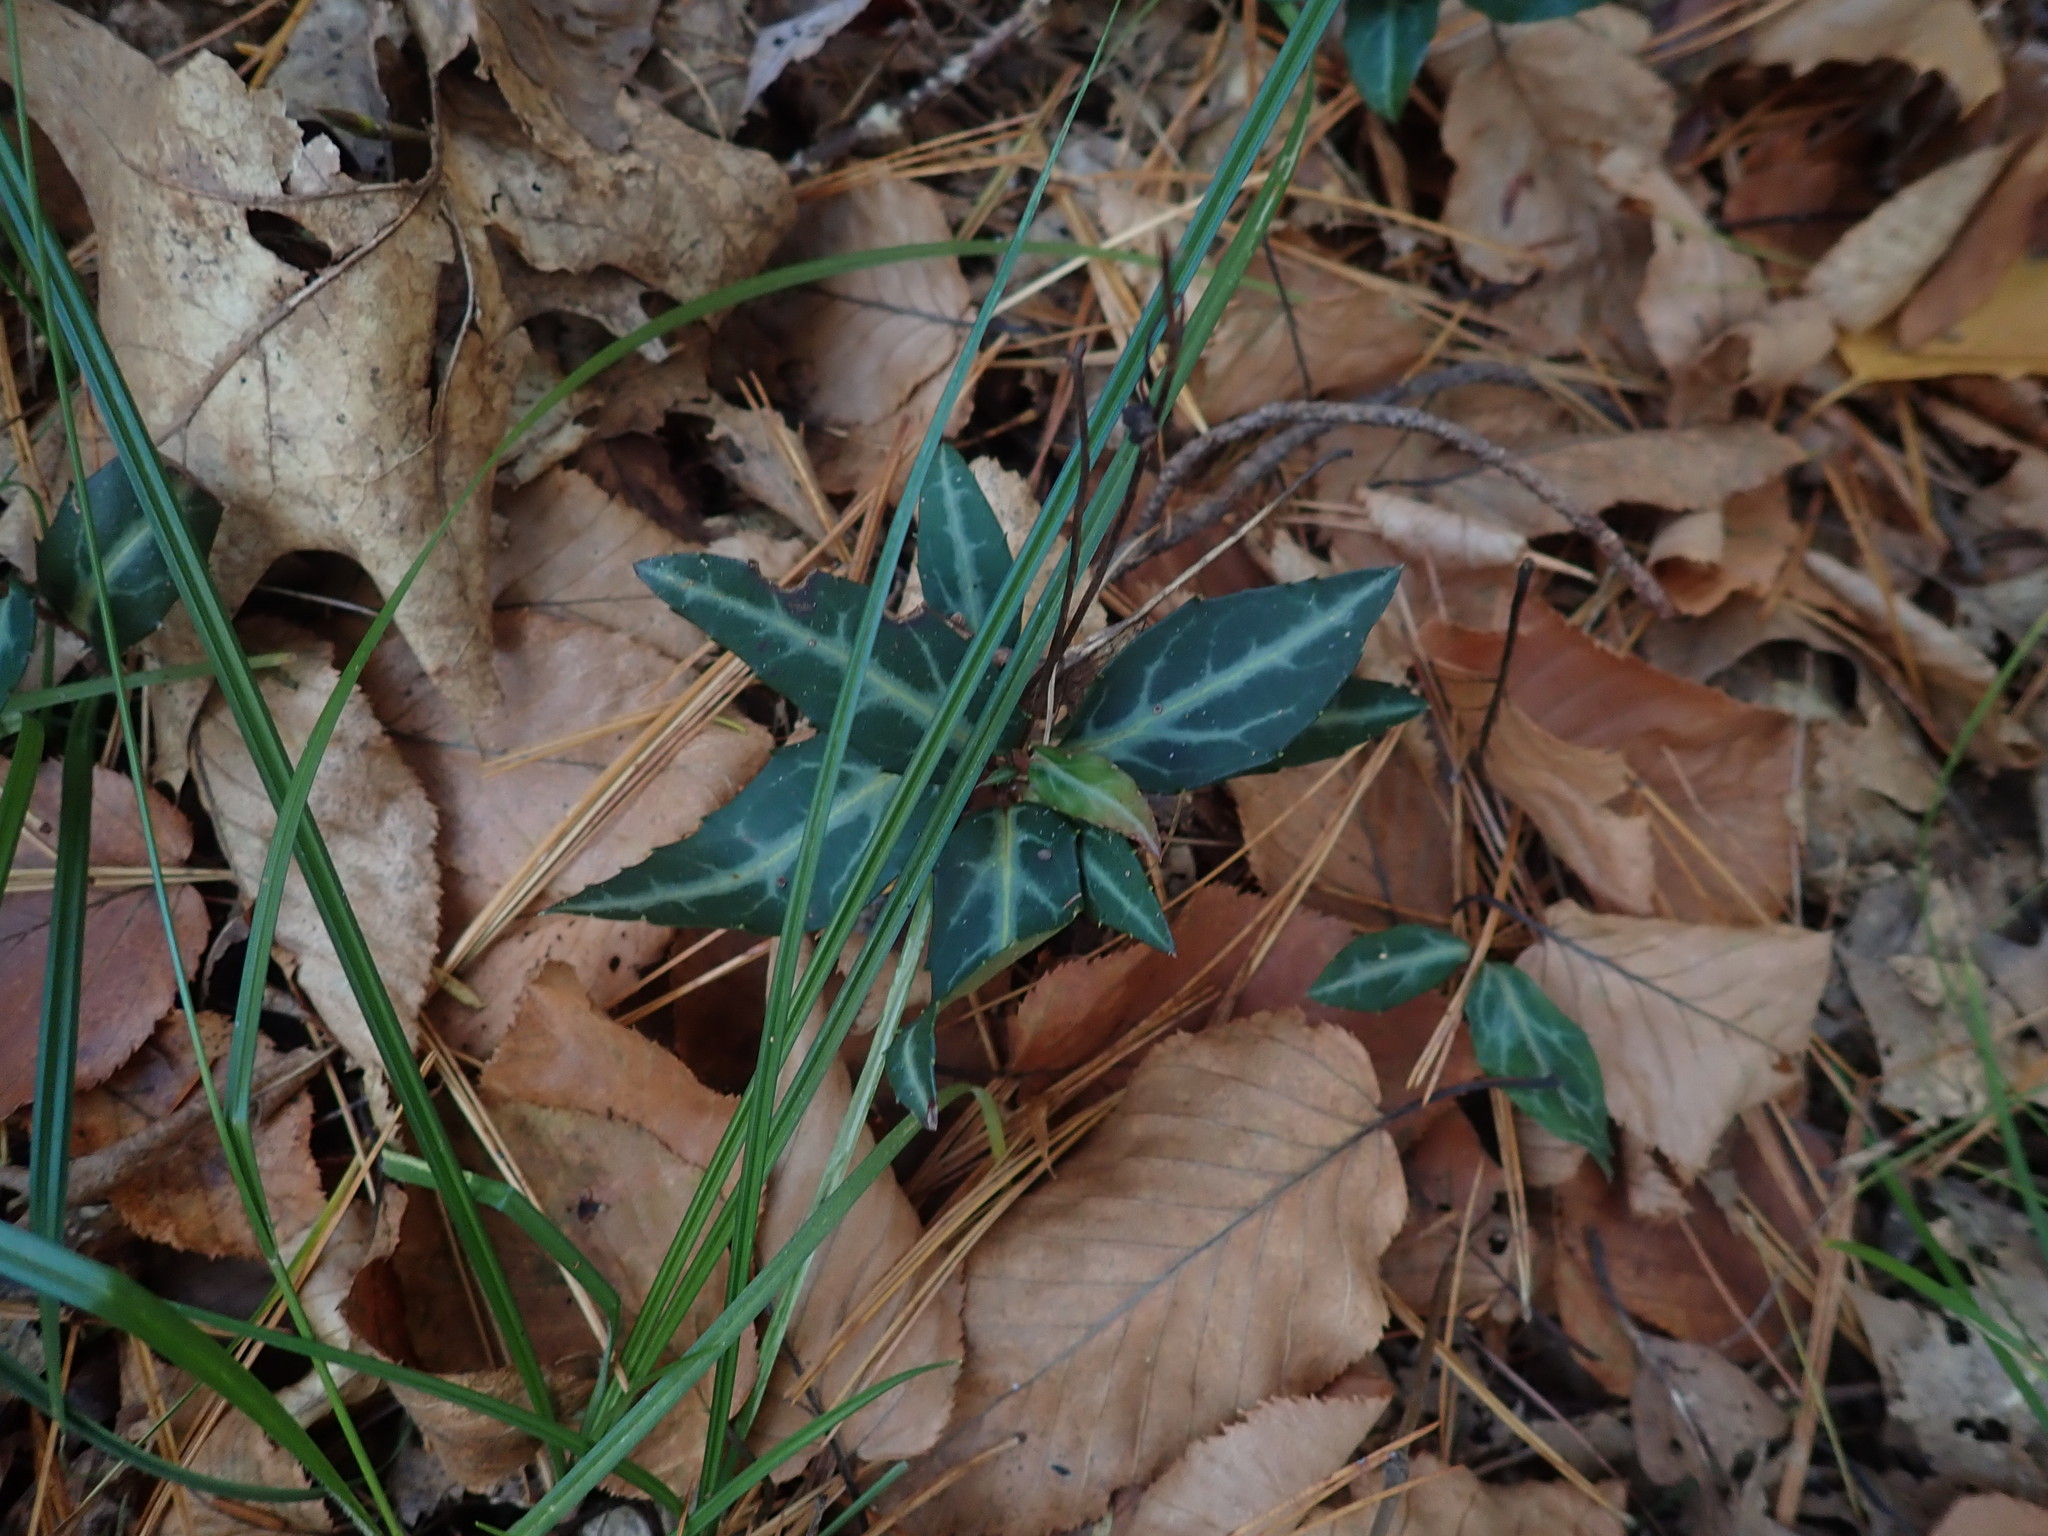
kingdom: Plantae
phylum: Tracheophyta
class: Magnoliopsida
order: Ericales
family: Ericaceae
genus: Chimaphila
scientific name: Chimaphila maculata
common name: Spotted pipsissewa
